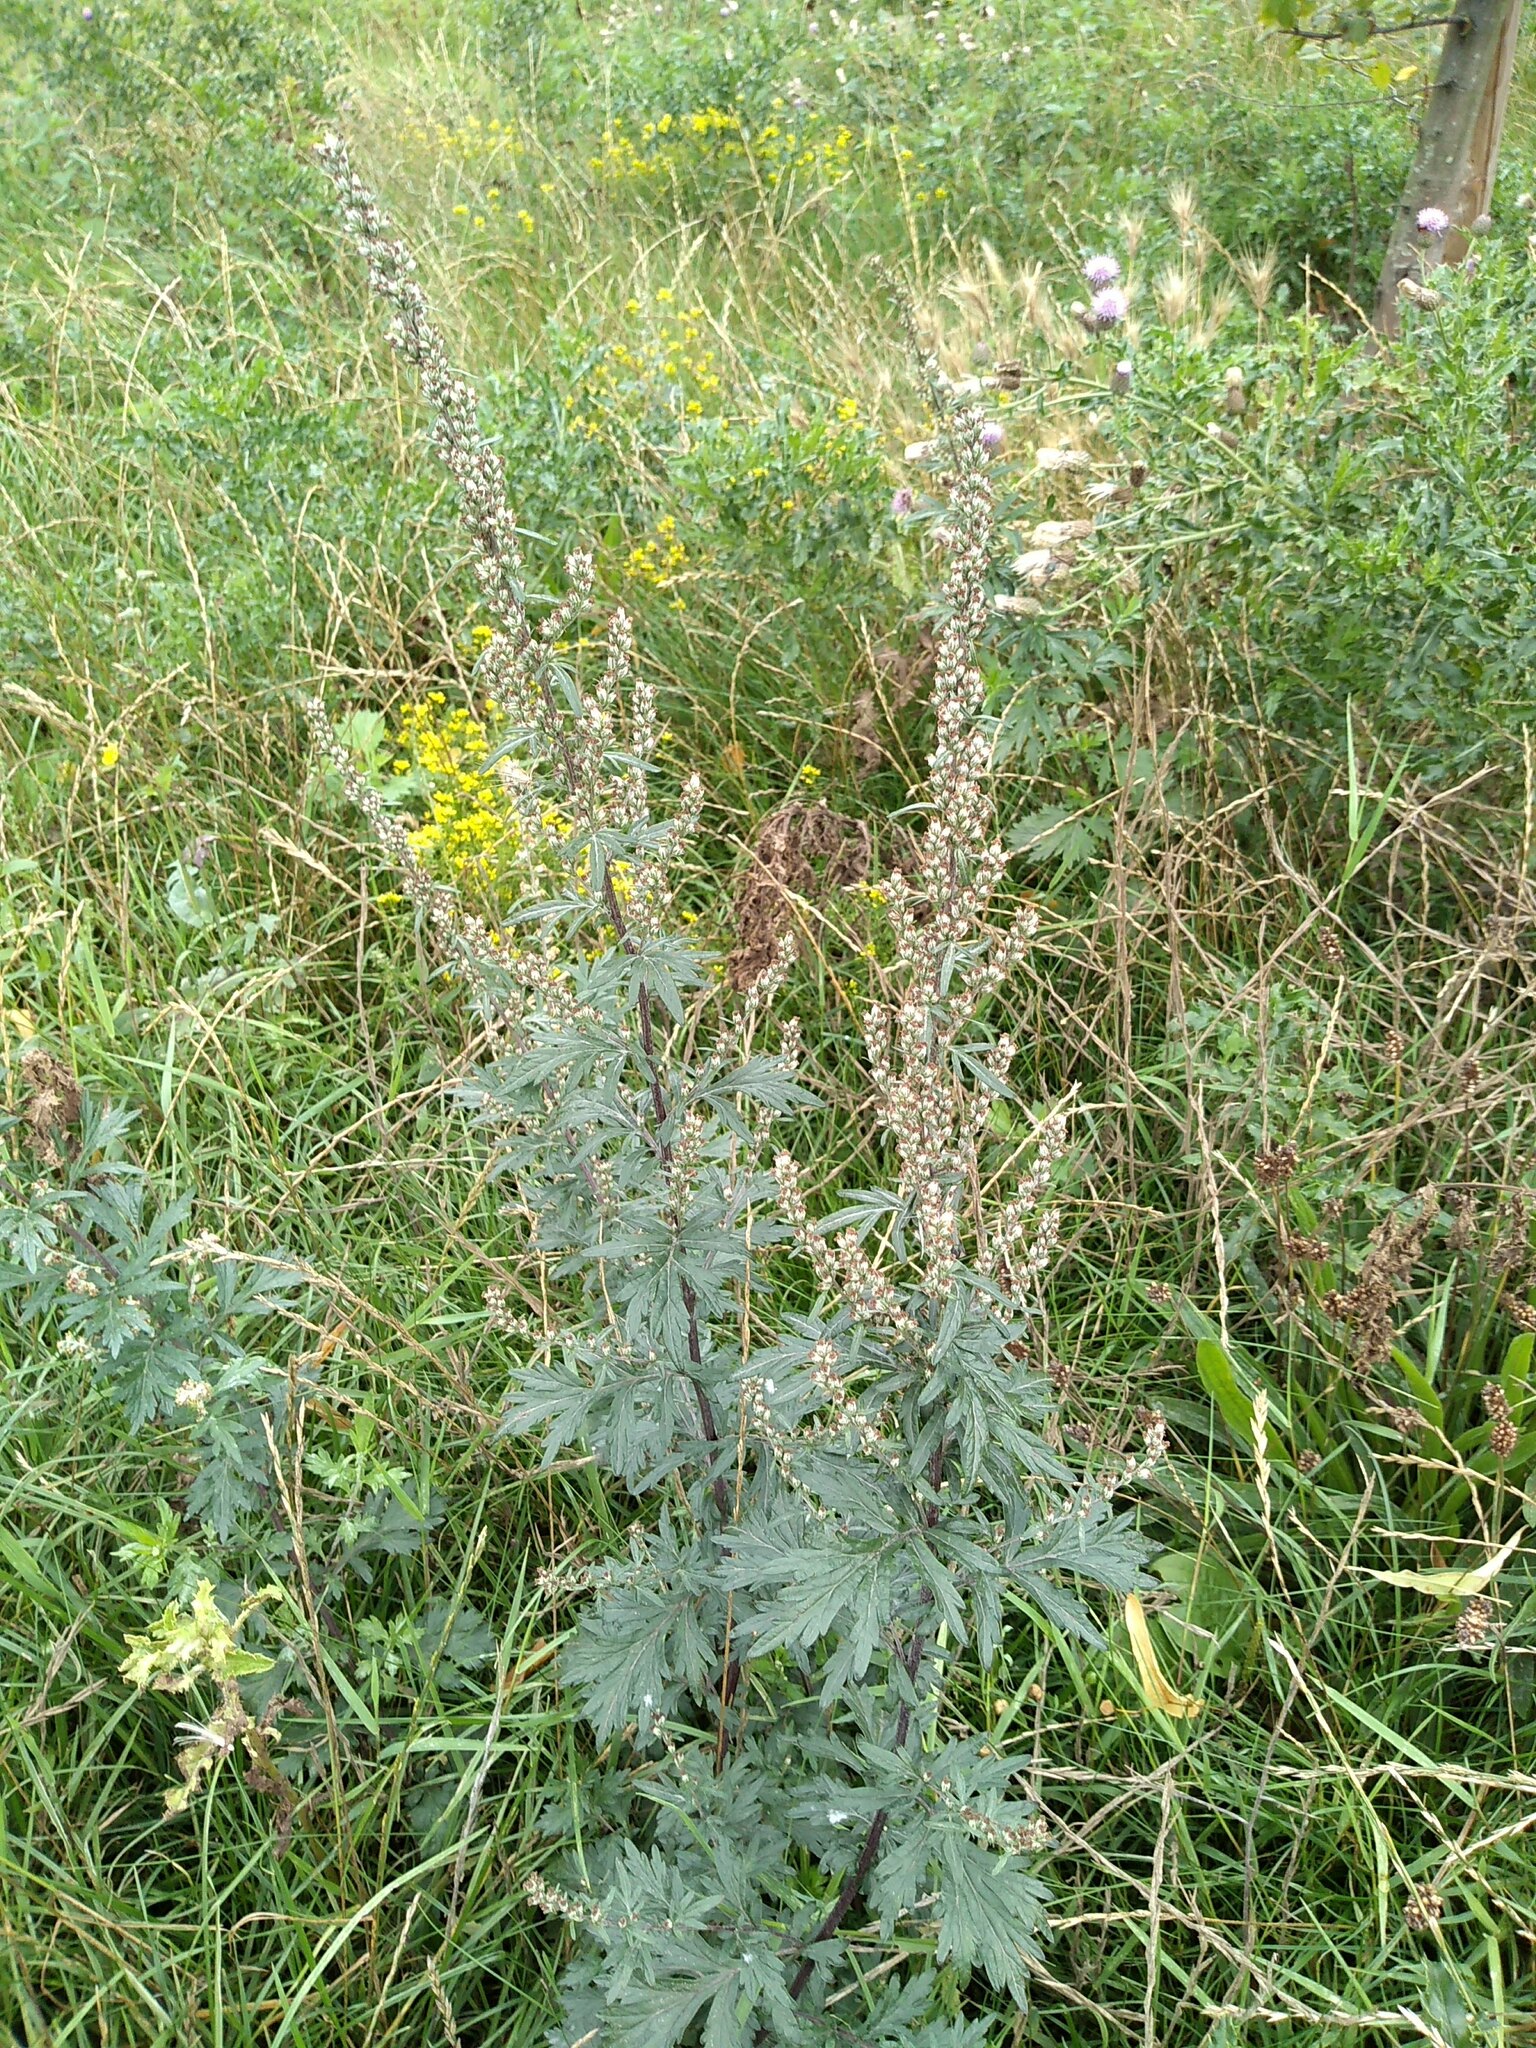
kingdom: Plantae
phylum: Tracheophyta
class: Magnoliopsida
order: Asterales
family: Asteraceae
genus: Artemisia
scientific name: Artemisia vulgaris
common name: Mugwort
